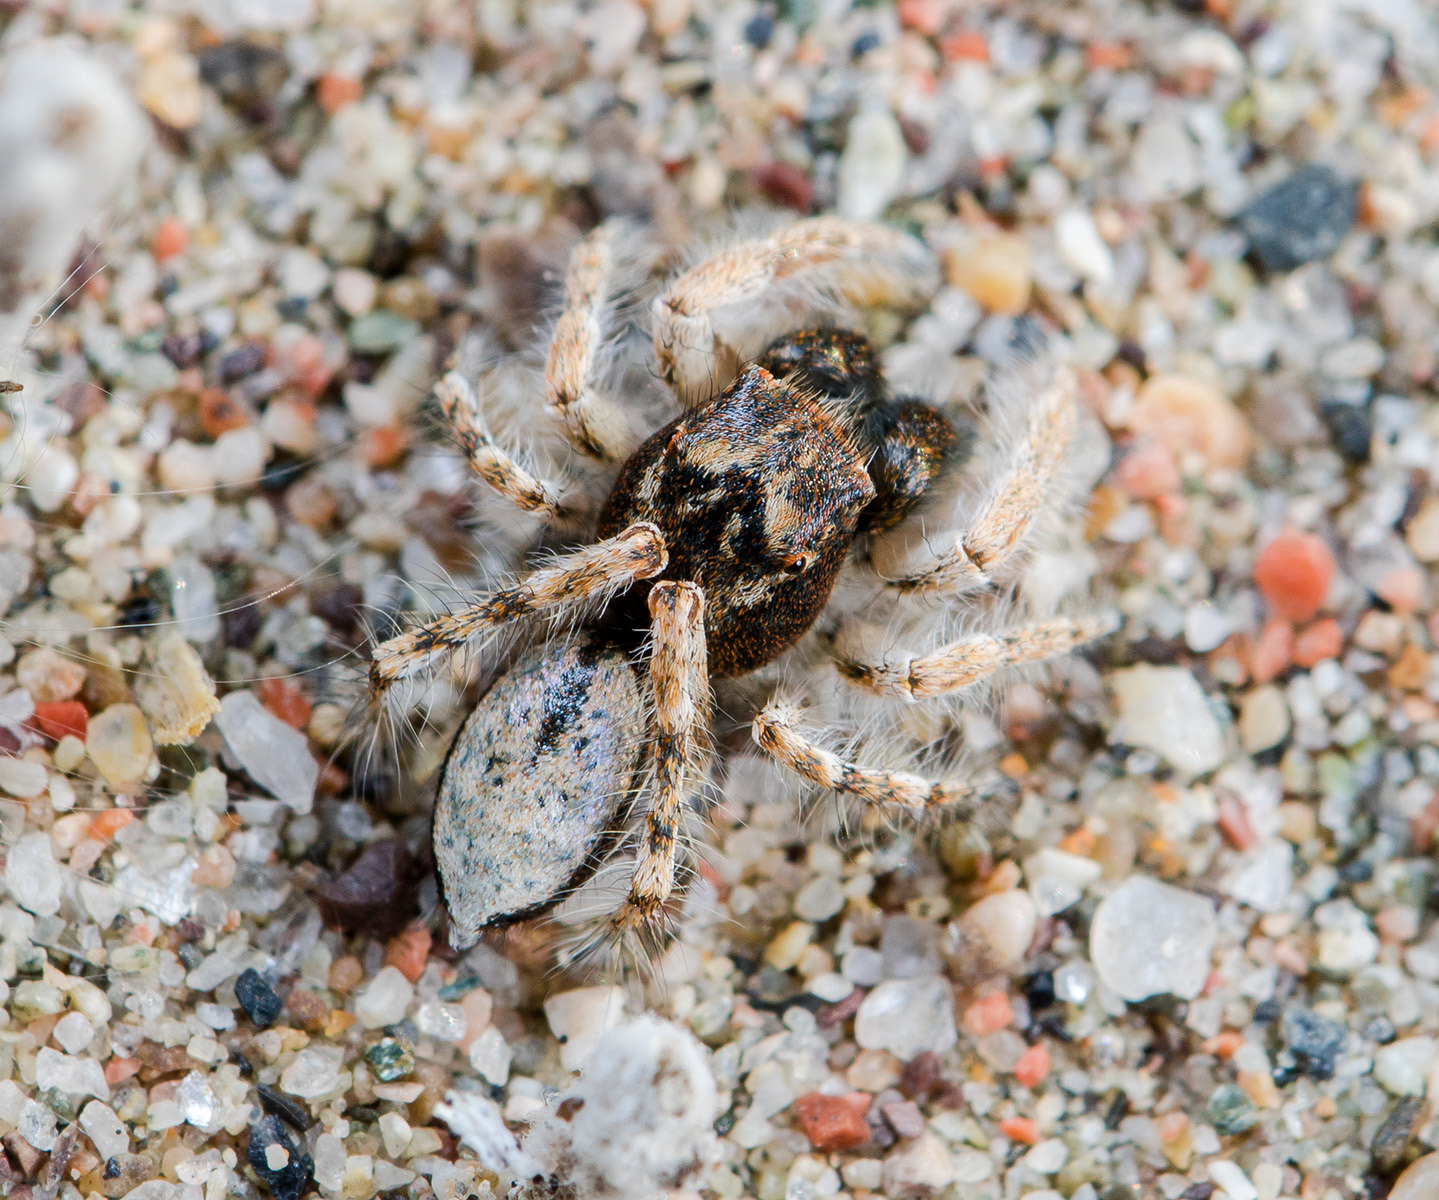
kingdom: Animalia
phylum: Arthropoda
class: Arachnida
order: Araneae
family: Salticidae
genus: Yllenus
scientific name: Yllenus uiguricus
